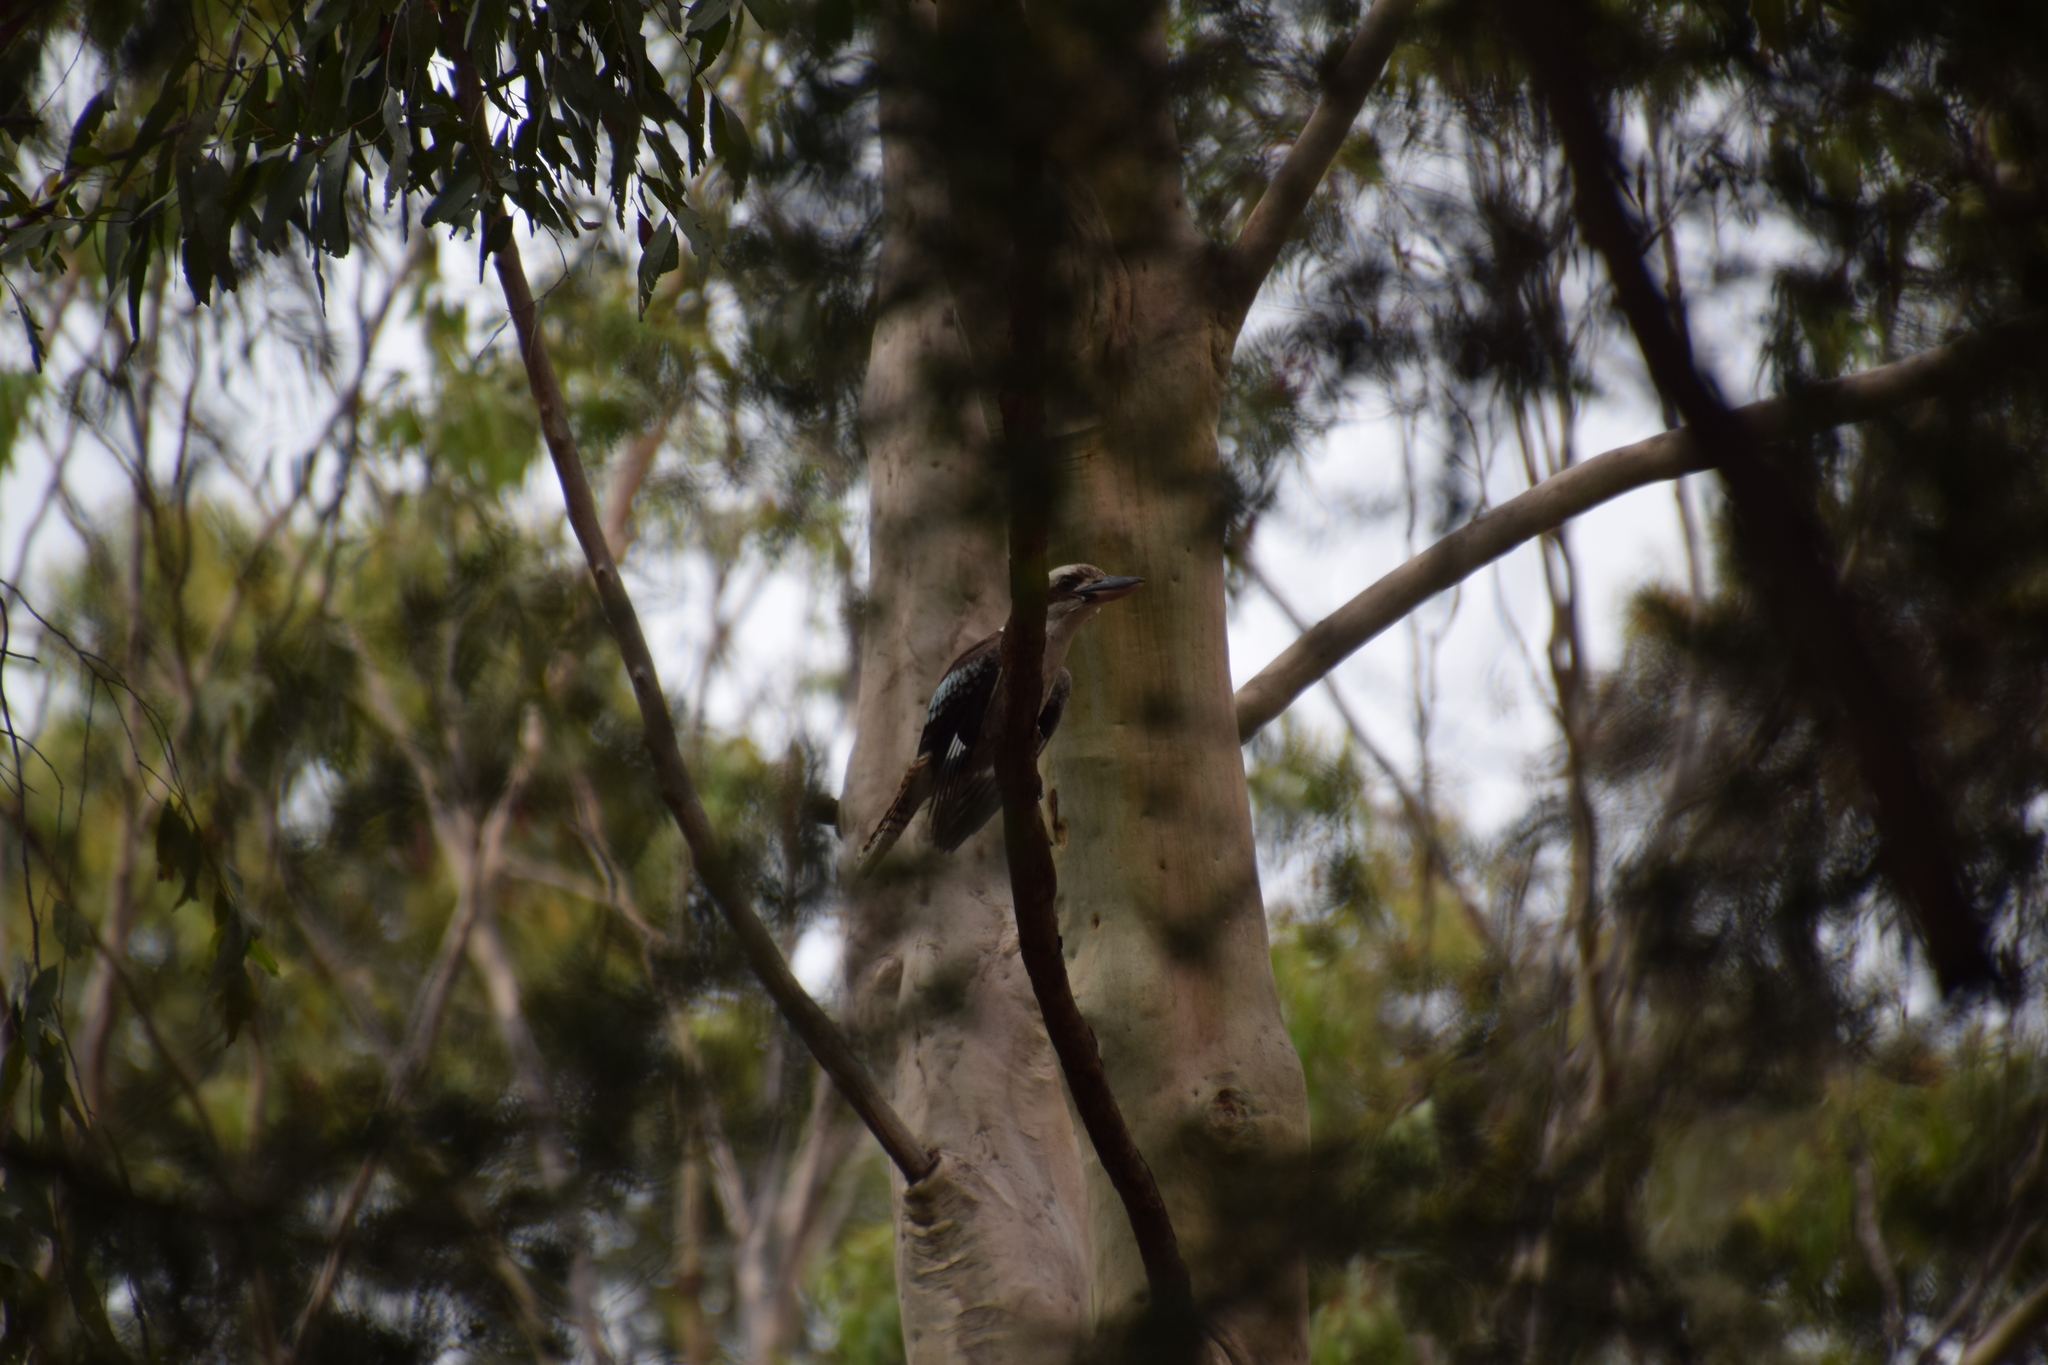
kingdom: Animalia
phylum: Chordata
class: Aves
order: Coraciiformes
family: Alcedinidae
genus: Dacelo
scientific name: Dacelo novaeguineae
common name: Laughing kookaburra
